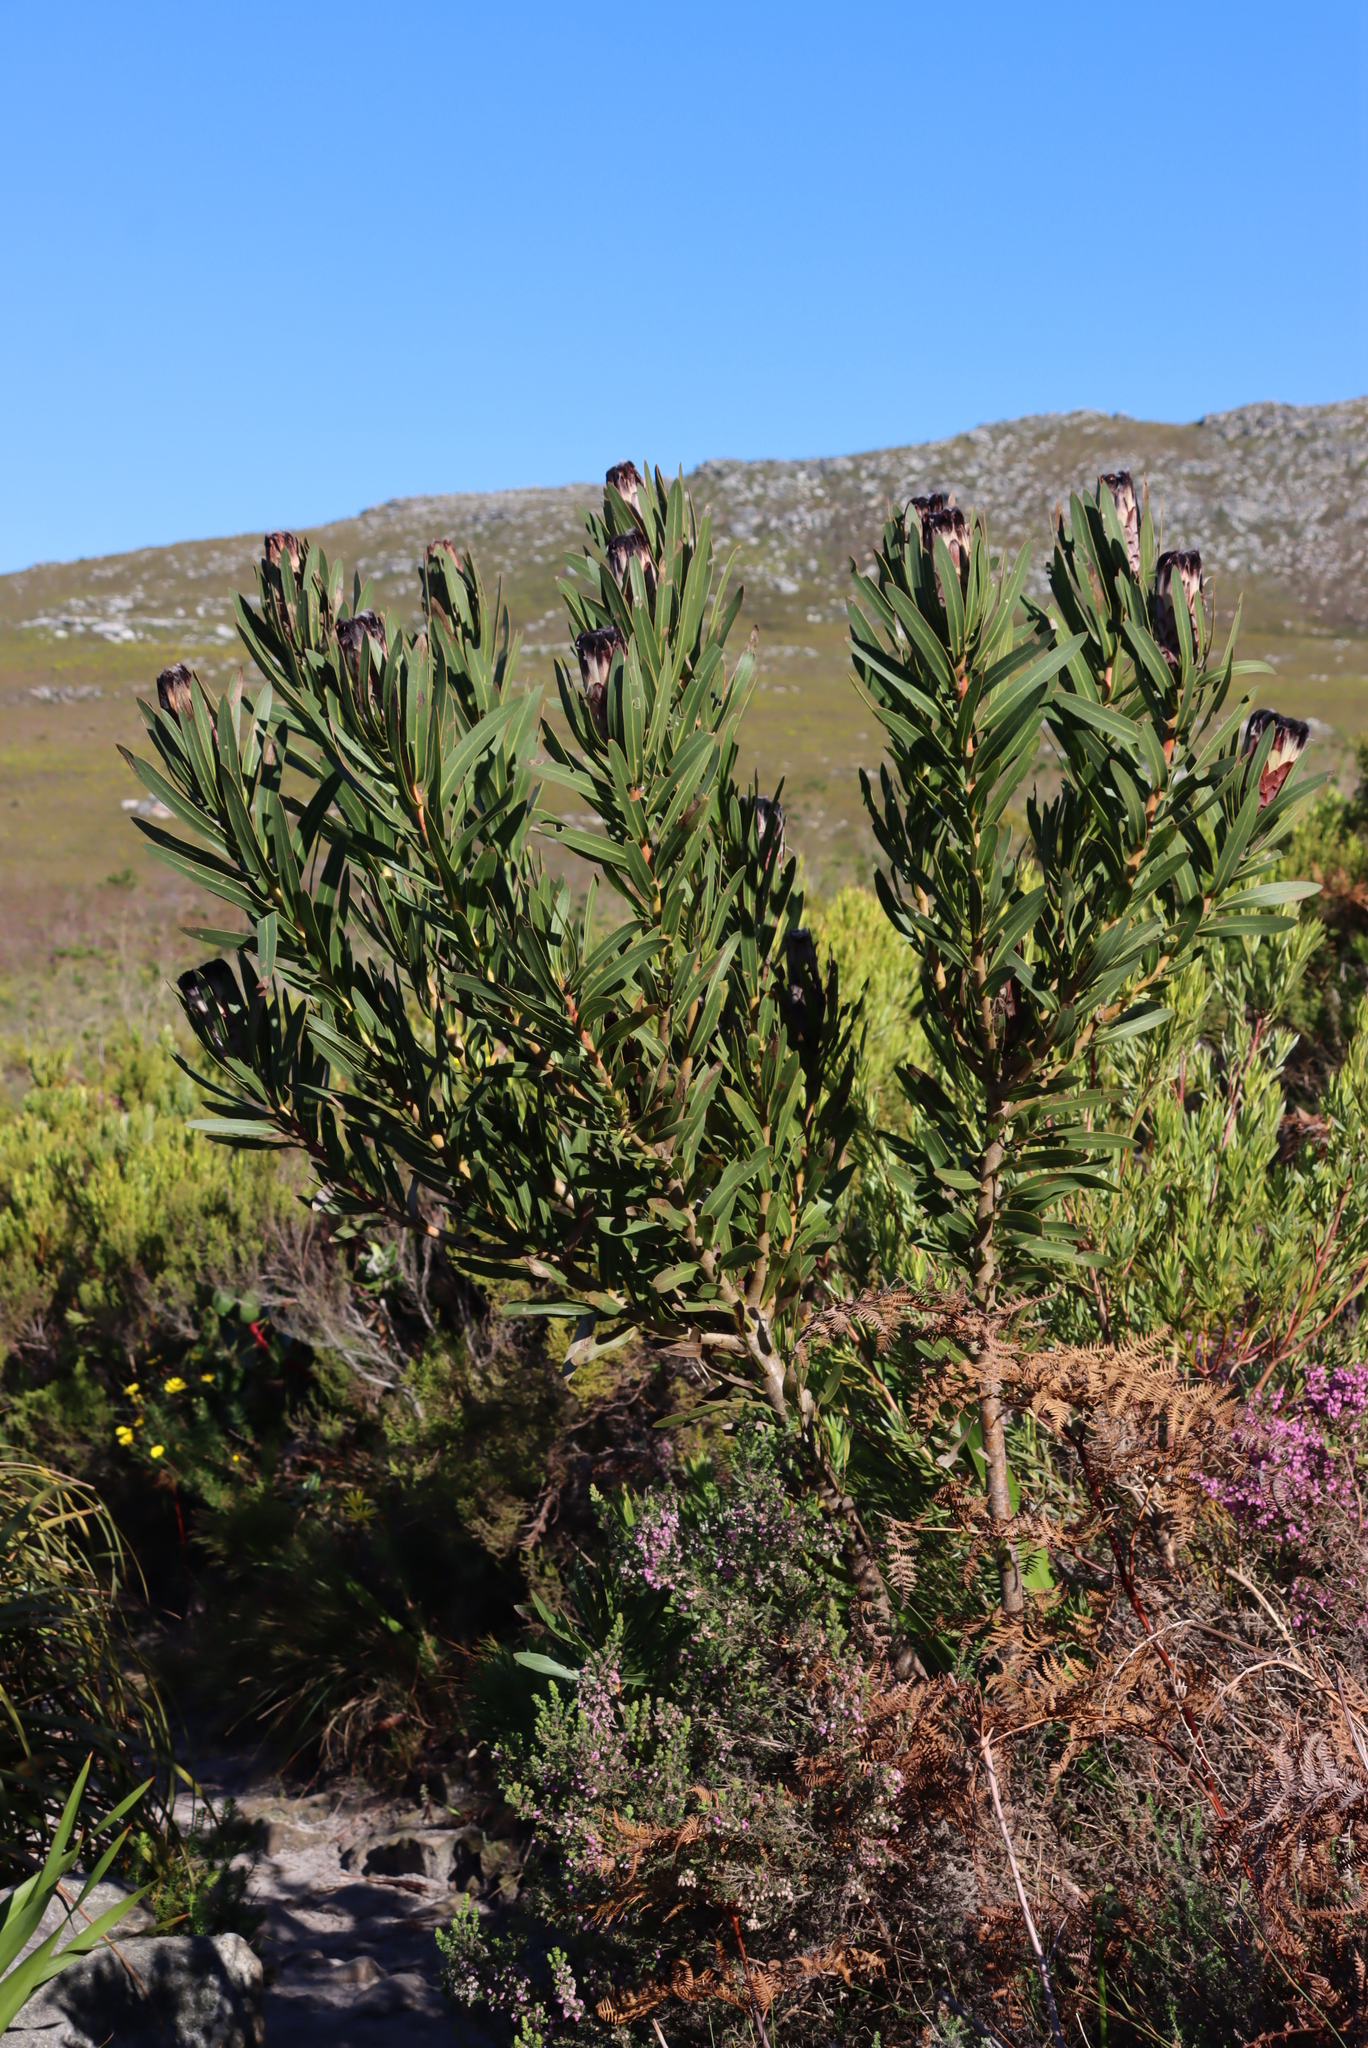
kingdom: Plantae
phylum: Tracheophyta
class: Magnoliopsida
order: Proteales
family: Proteaceae
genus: Protea
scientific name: Protea lepidocarpodendron
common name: Black-bearded protea
